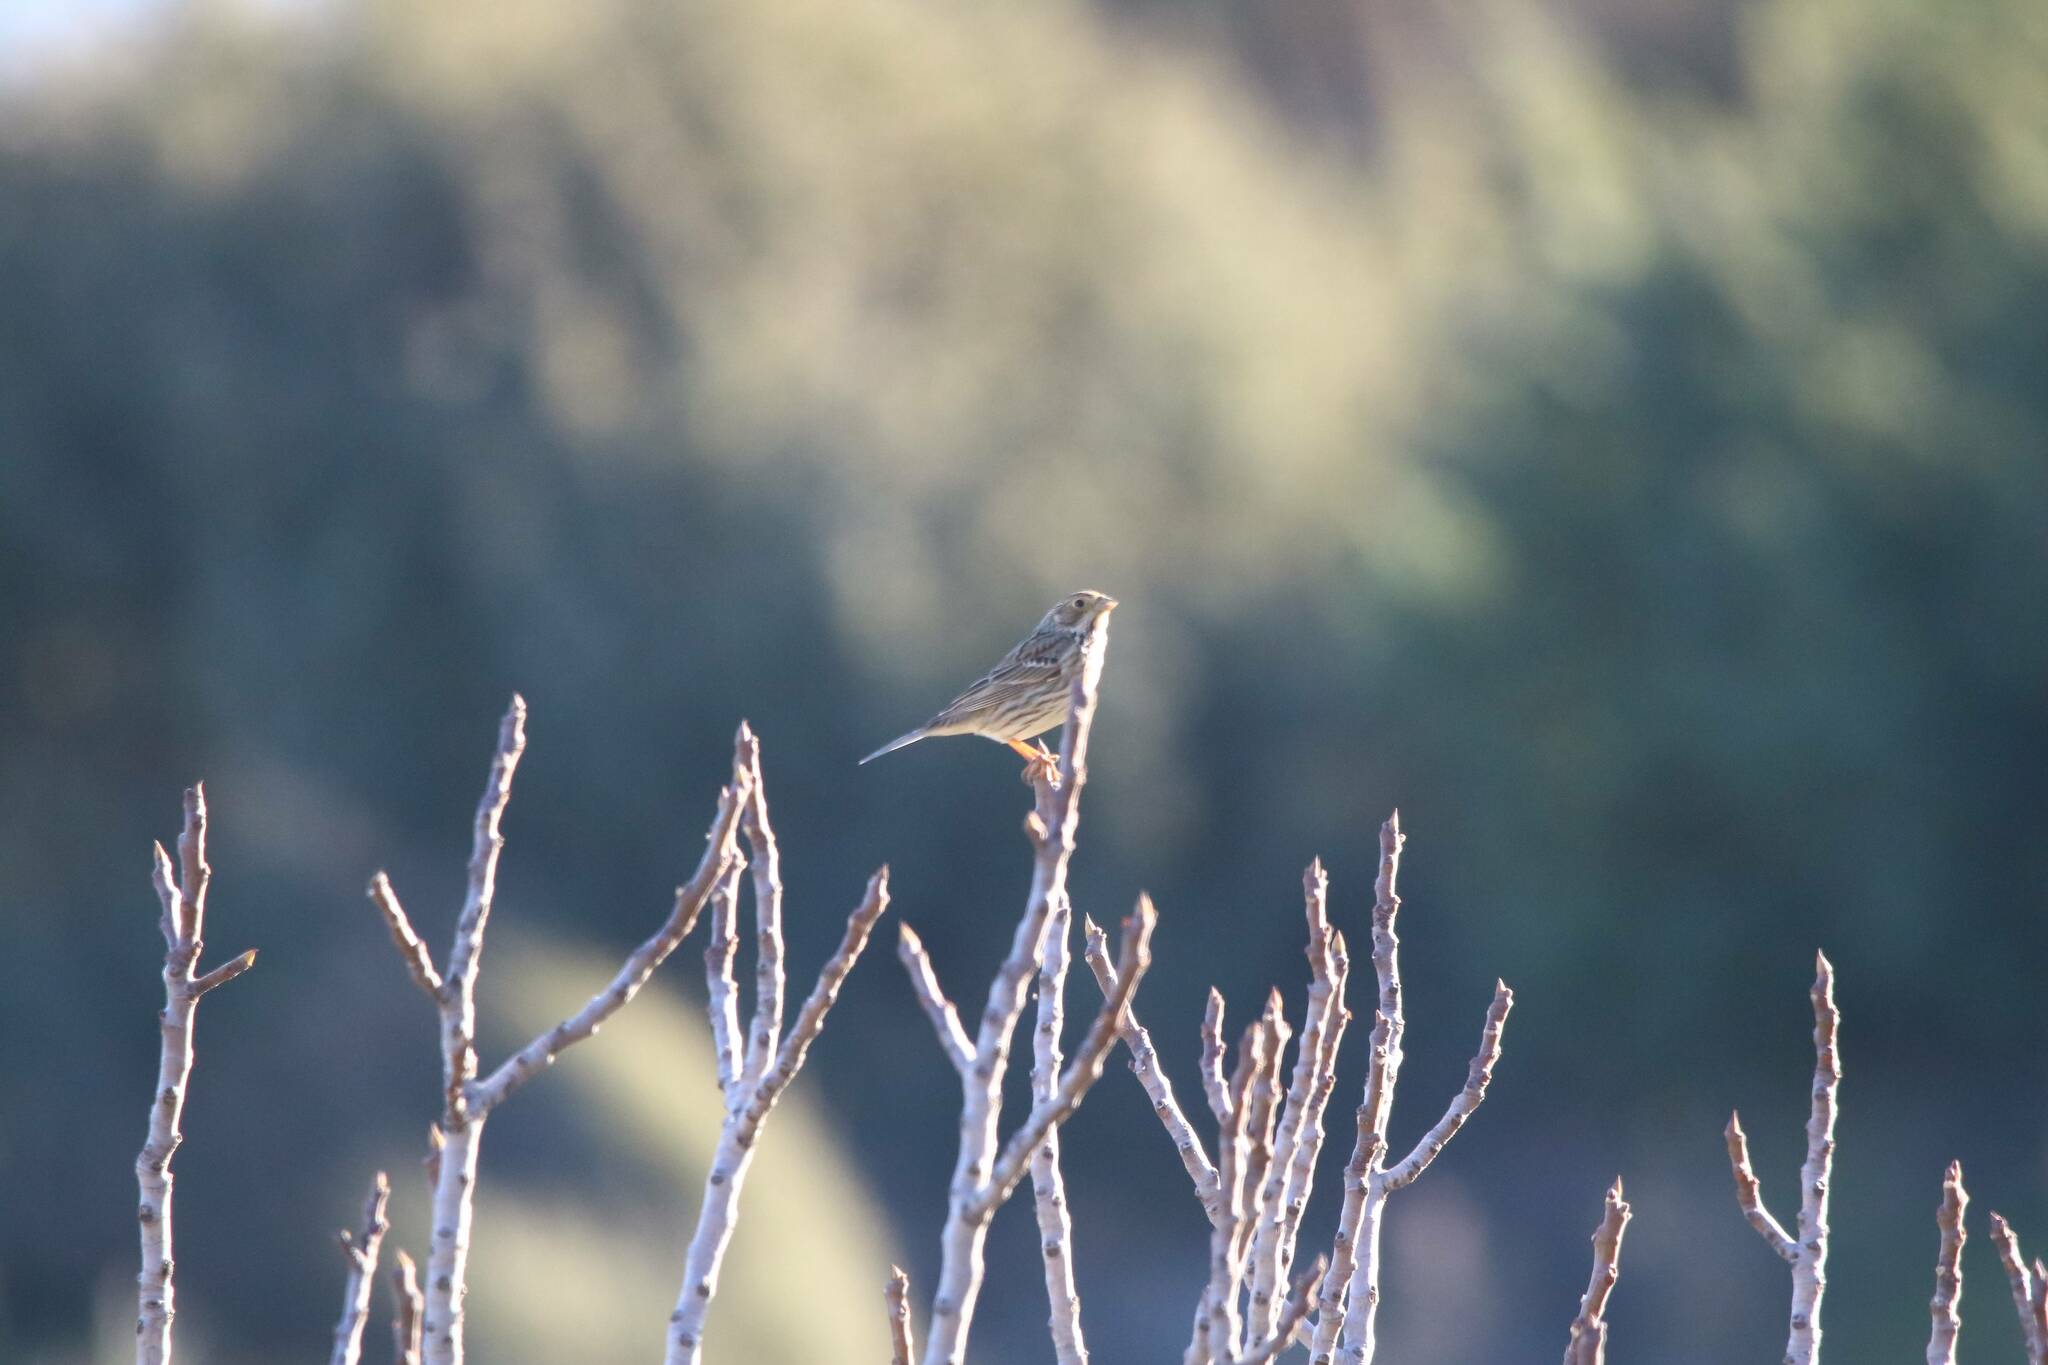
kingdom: Animalia
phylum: Chordata
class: Aves
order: Passeriformes
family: Emberizidae
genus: Emberiza
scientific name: Emberiza calandra
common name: Corn bunting
